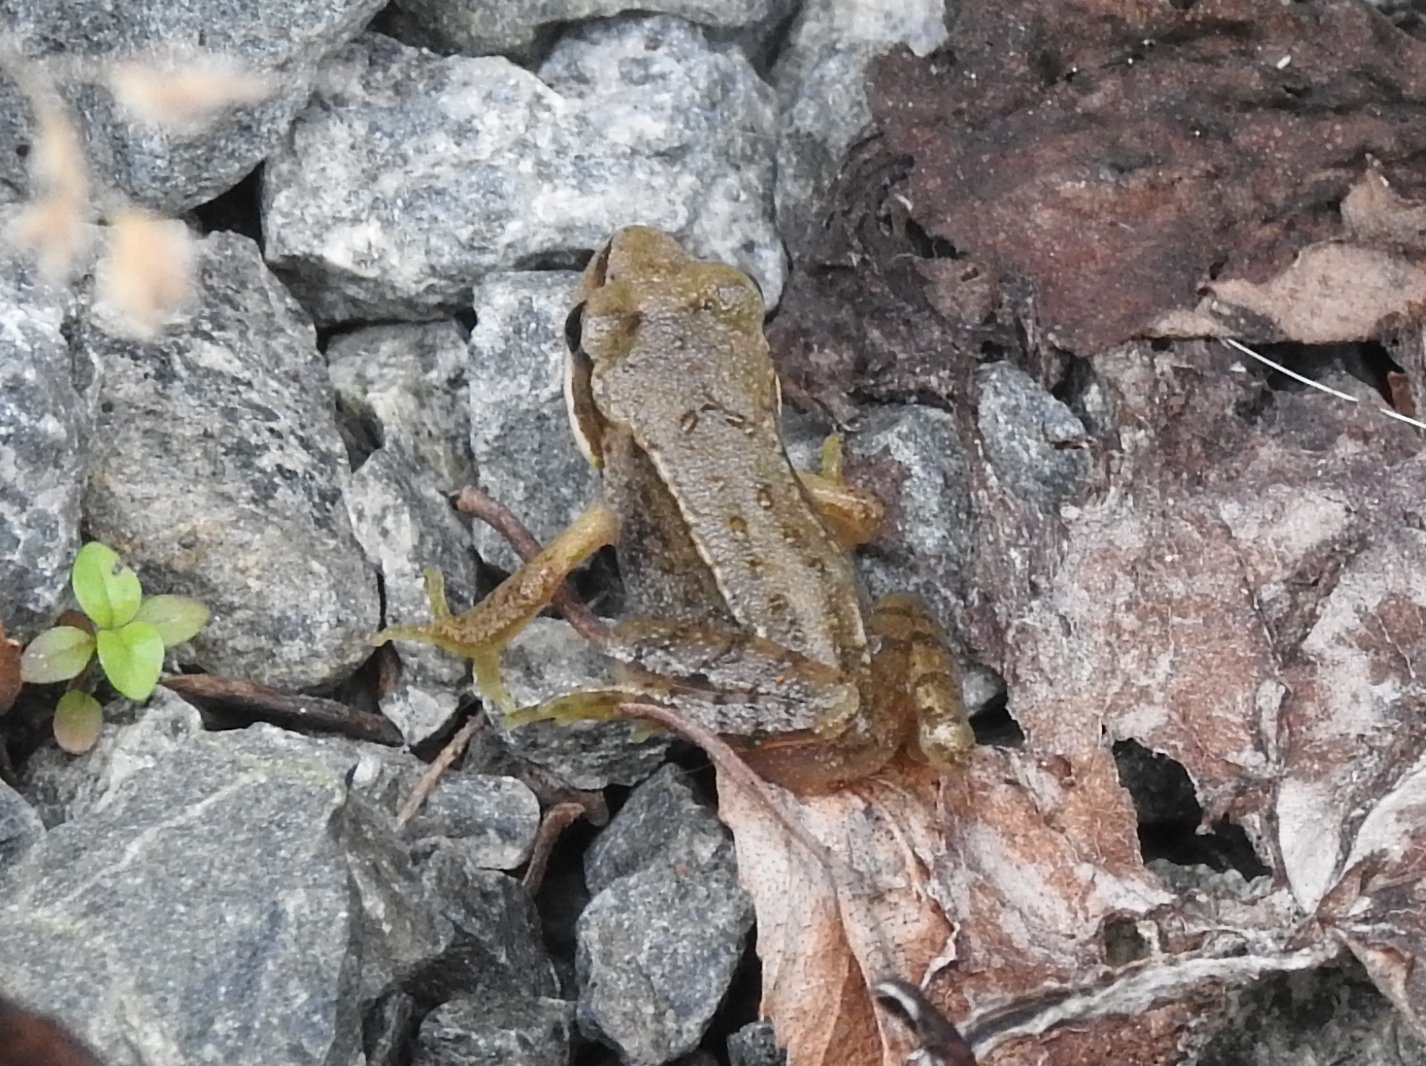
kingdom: Animalia
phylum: Chordata
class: Amphibia
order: Anura
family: Ranidae
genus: Rana
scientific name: Rana temporaria
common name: Common frog
